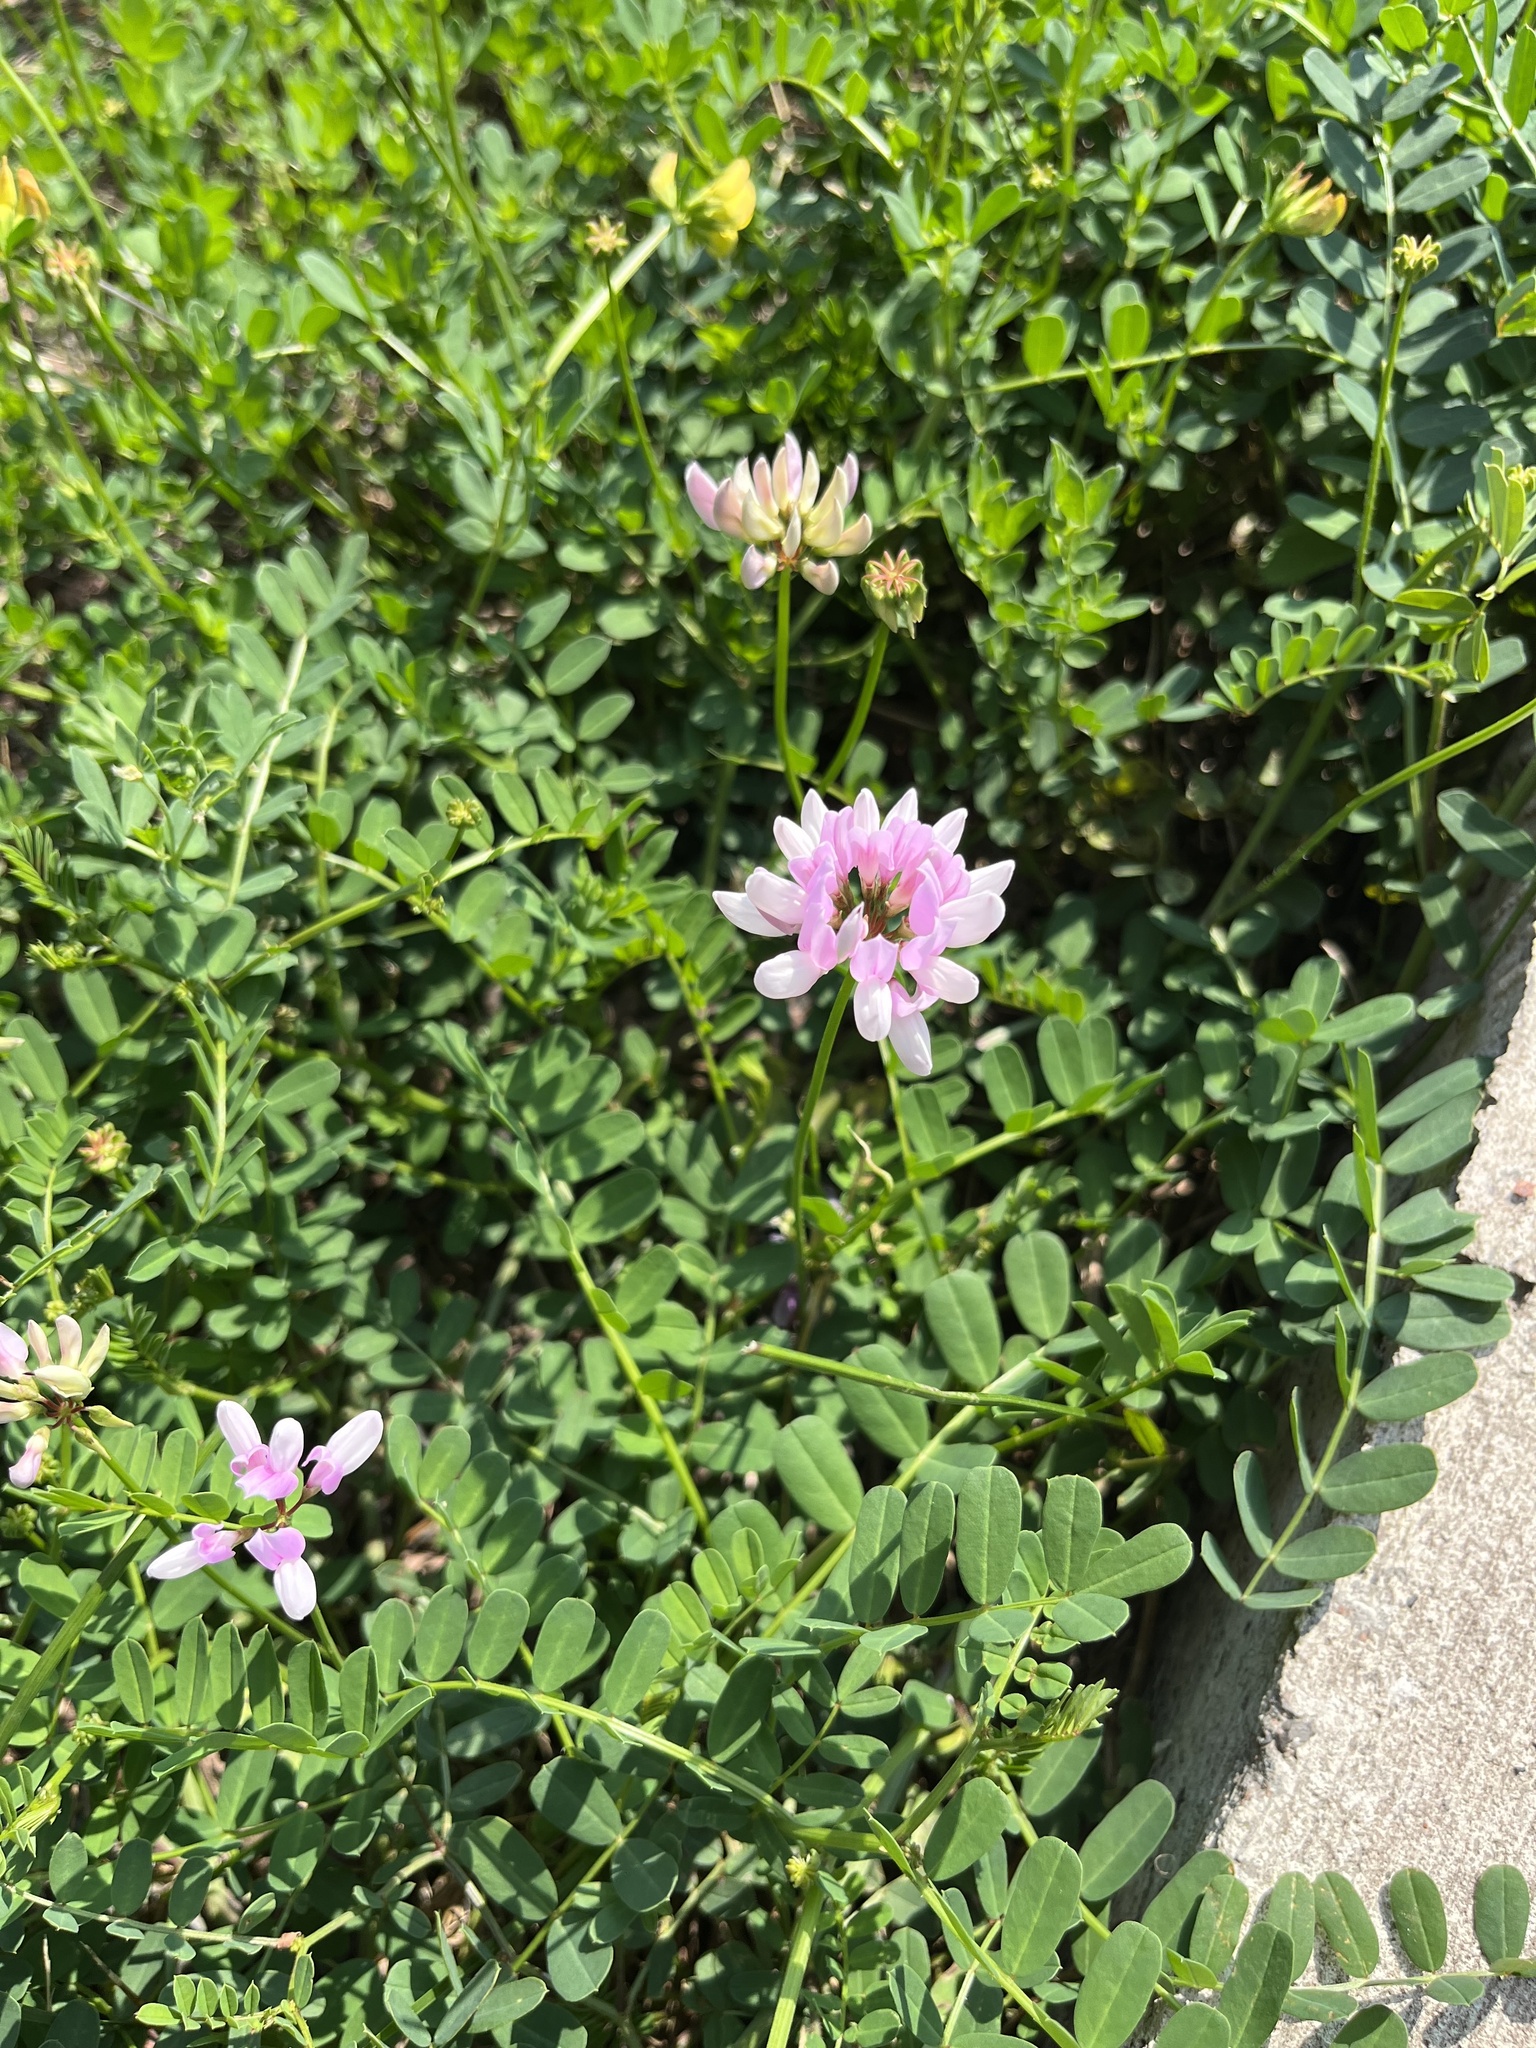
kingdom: Plantae
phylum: Tracheophyta
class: Magnoliopsida
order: Fabales
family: Fabaceae
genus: Coronilla
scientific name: Coronilla varia
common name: Crownvetch
